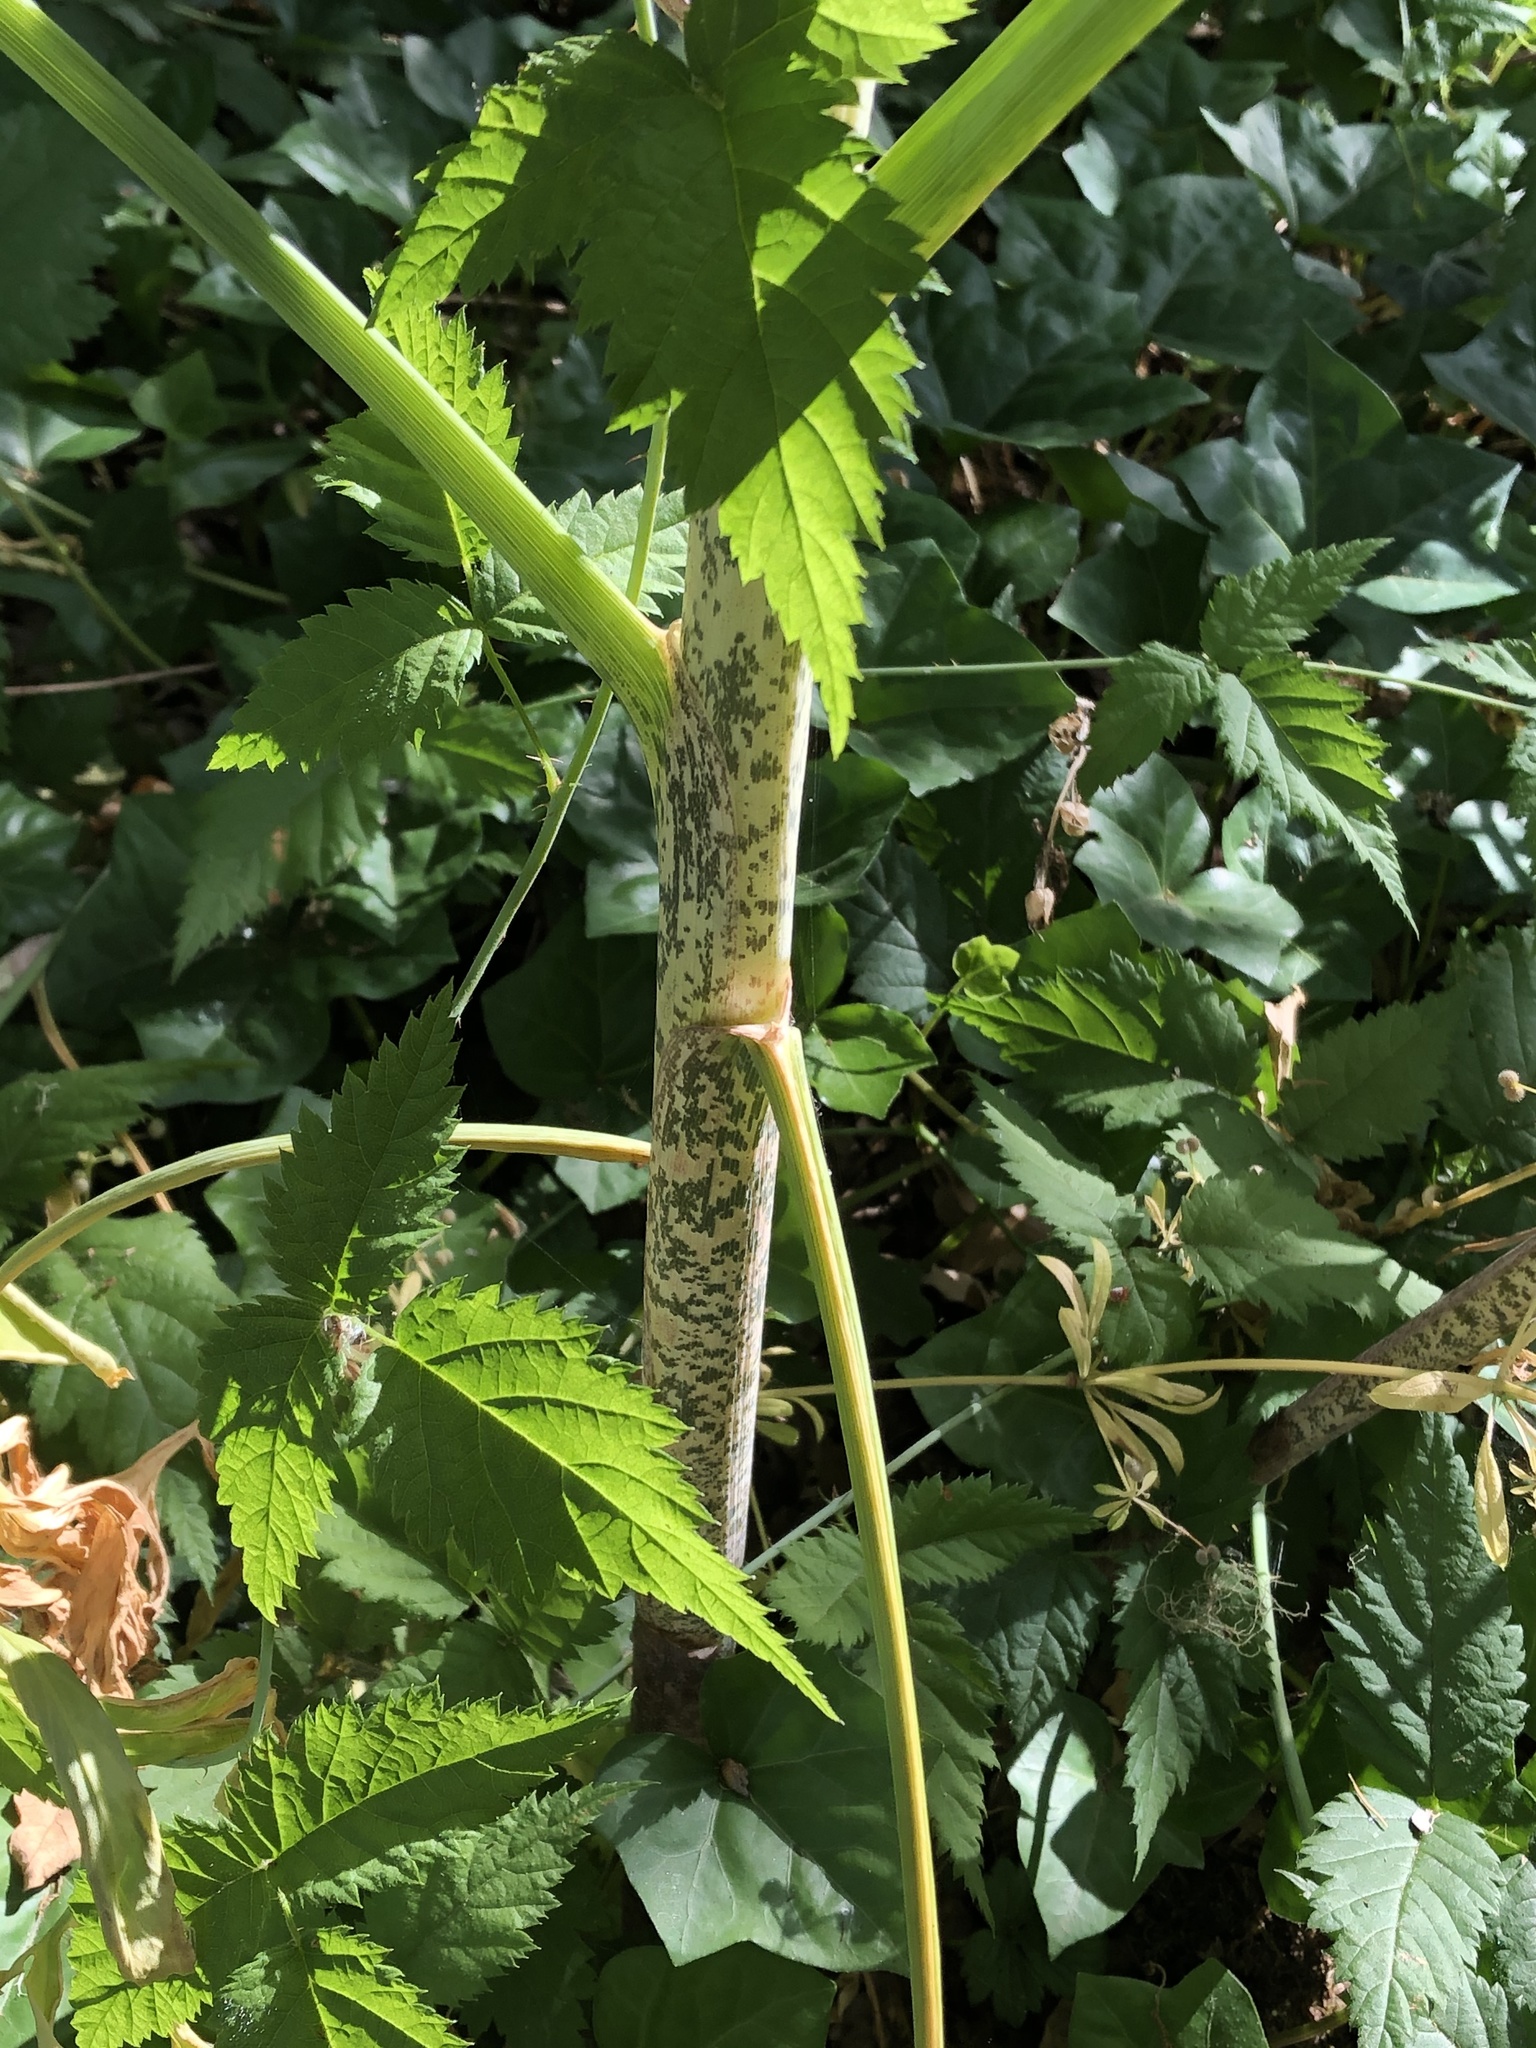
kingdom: Plantae
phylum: Tracheophyta
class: Liliopsida
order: Alismatales
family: Araceae
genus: Dracunculus
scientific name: Dracunculus vulgaris
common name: Dragon arum
